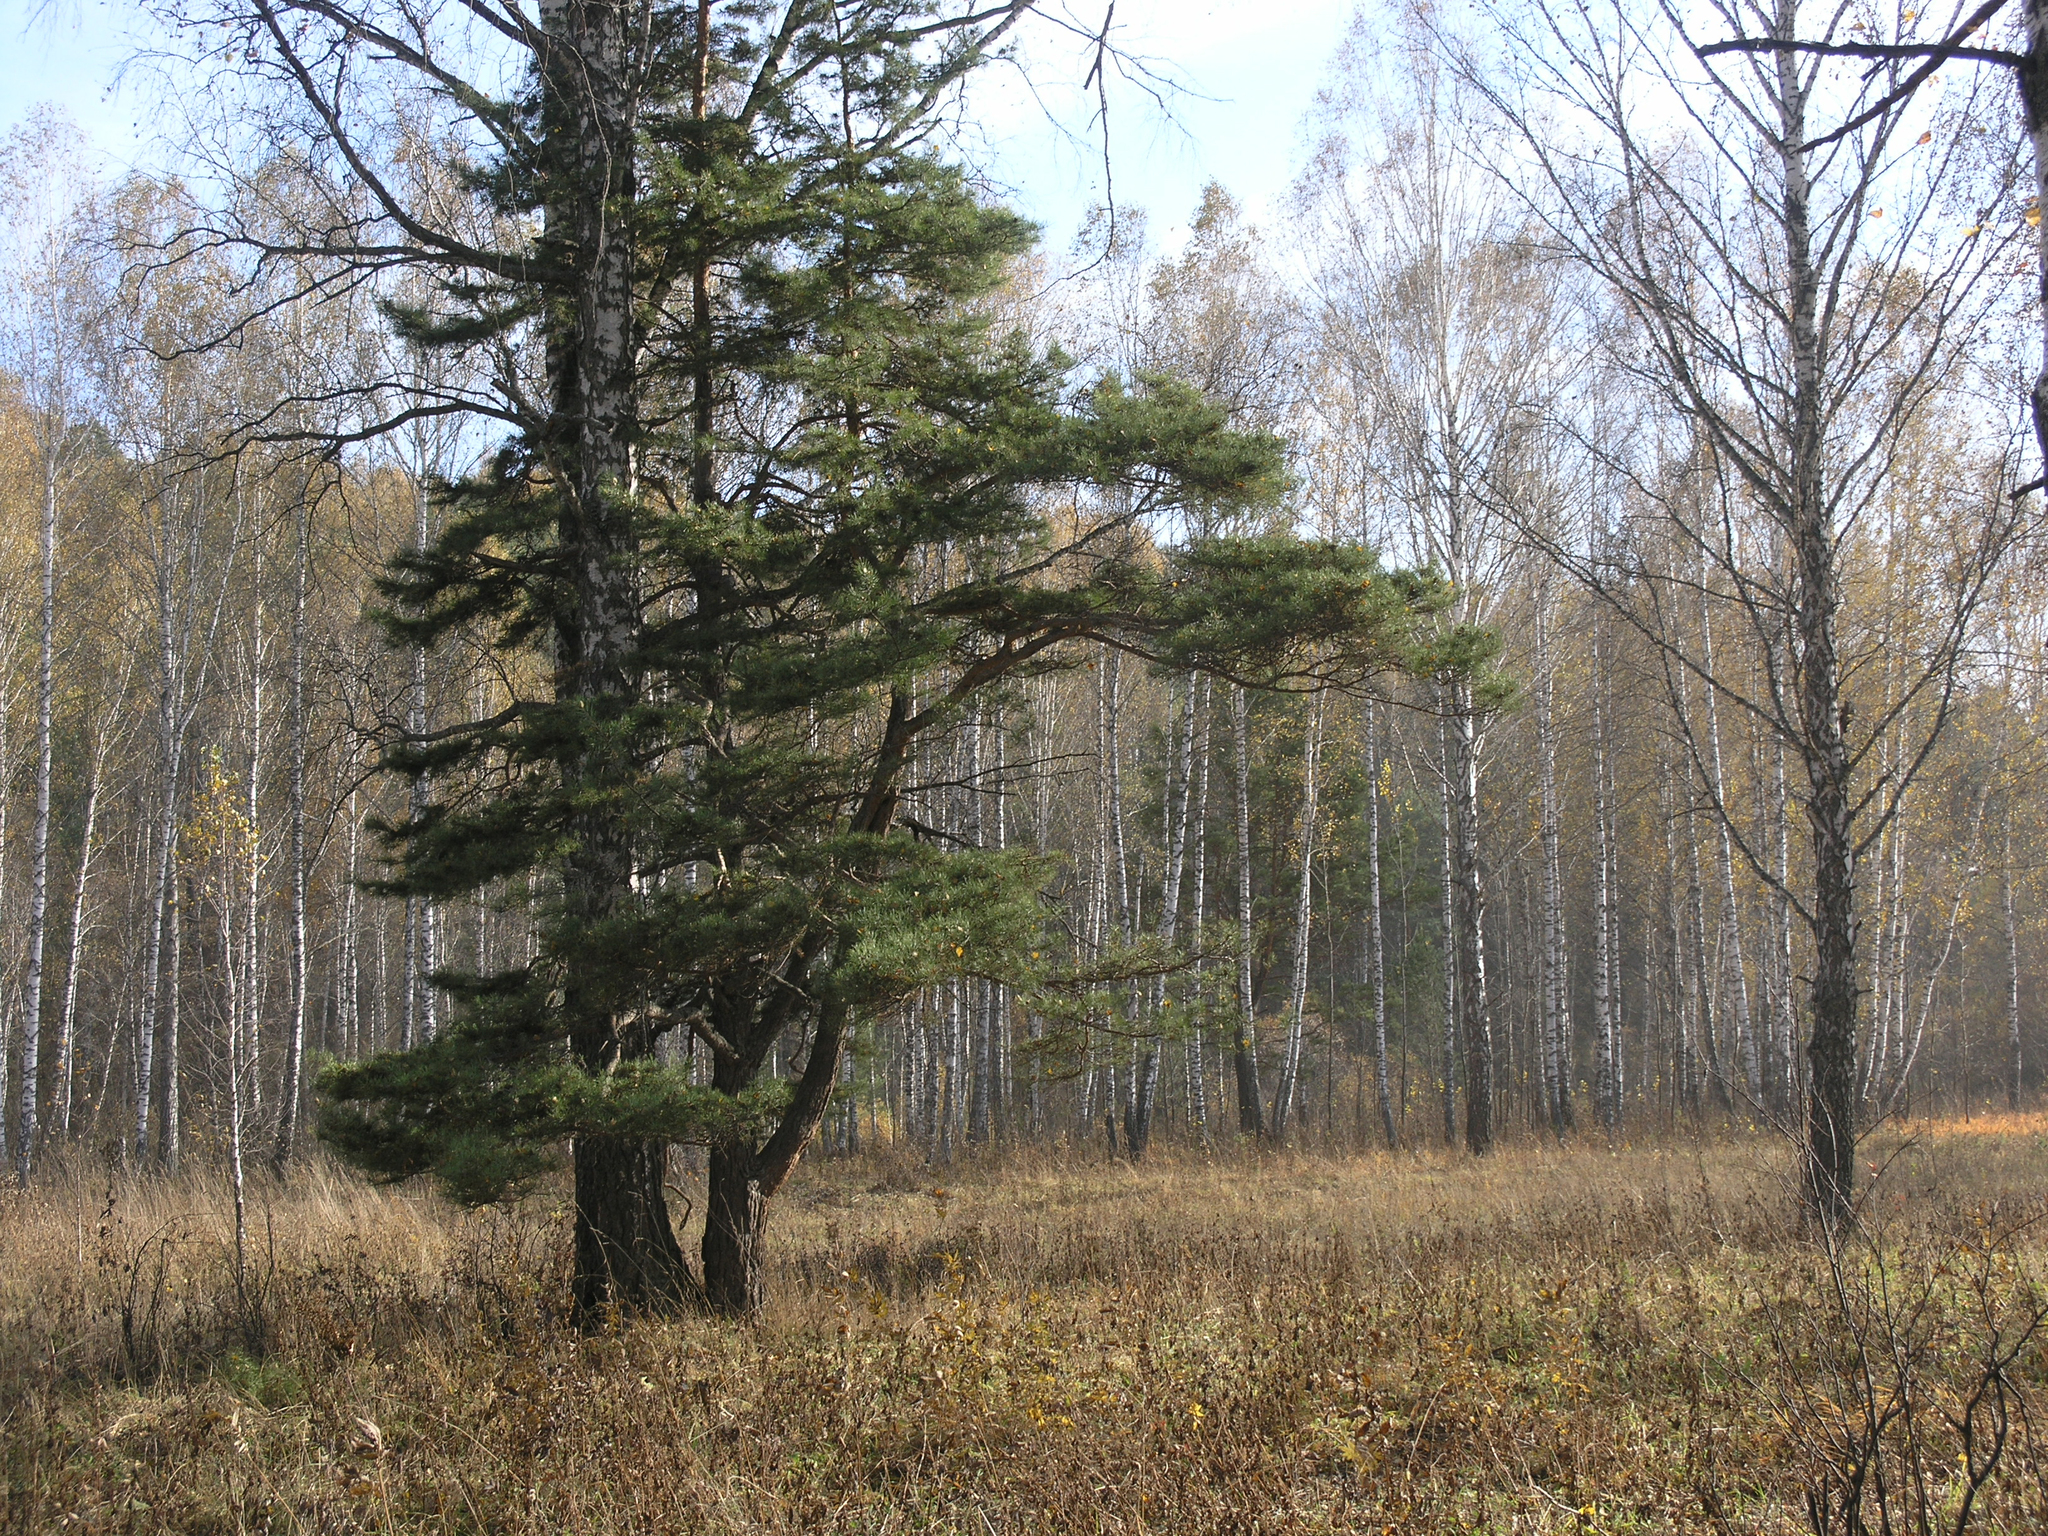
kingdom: Plantae
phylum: Tracheophyta
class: Pinopsida
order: Pinales
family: Pinaceae
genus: Pinus
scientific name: Pinus sylvestris
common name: Scots pine
